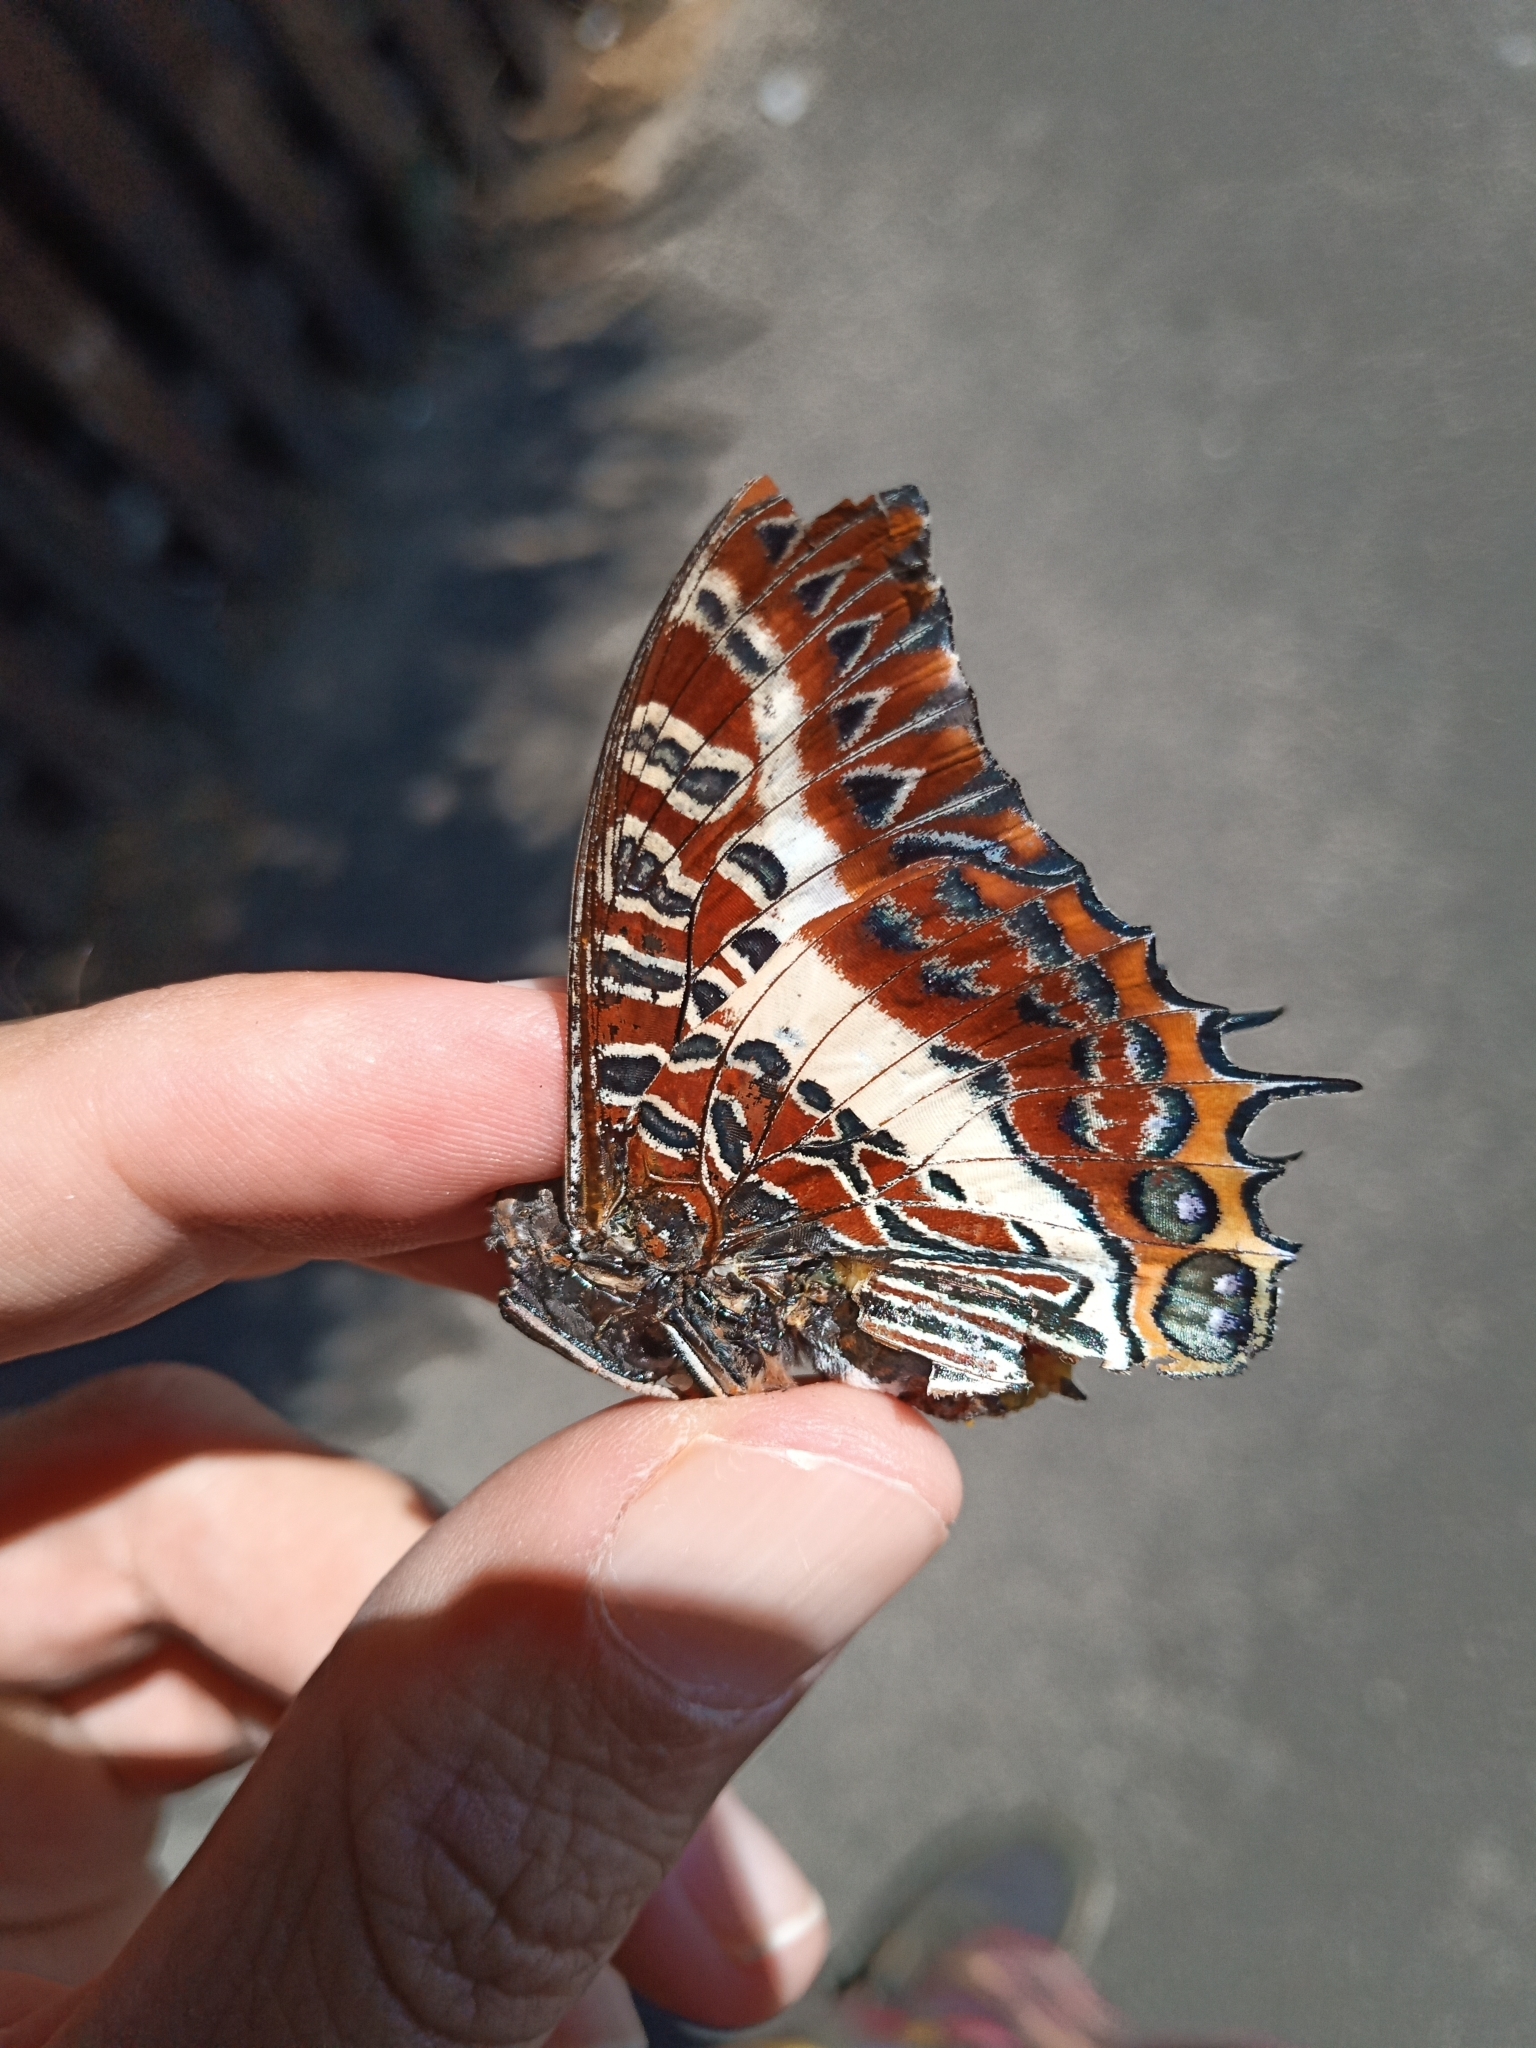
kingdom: Animalia
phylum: Arthropoda
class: Insecta
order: Lepidoptera
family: Nymphalidae
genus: Charaxes
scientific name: Charaxes brutus
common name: White-barred charaxes
